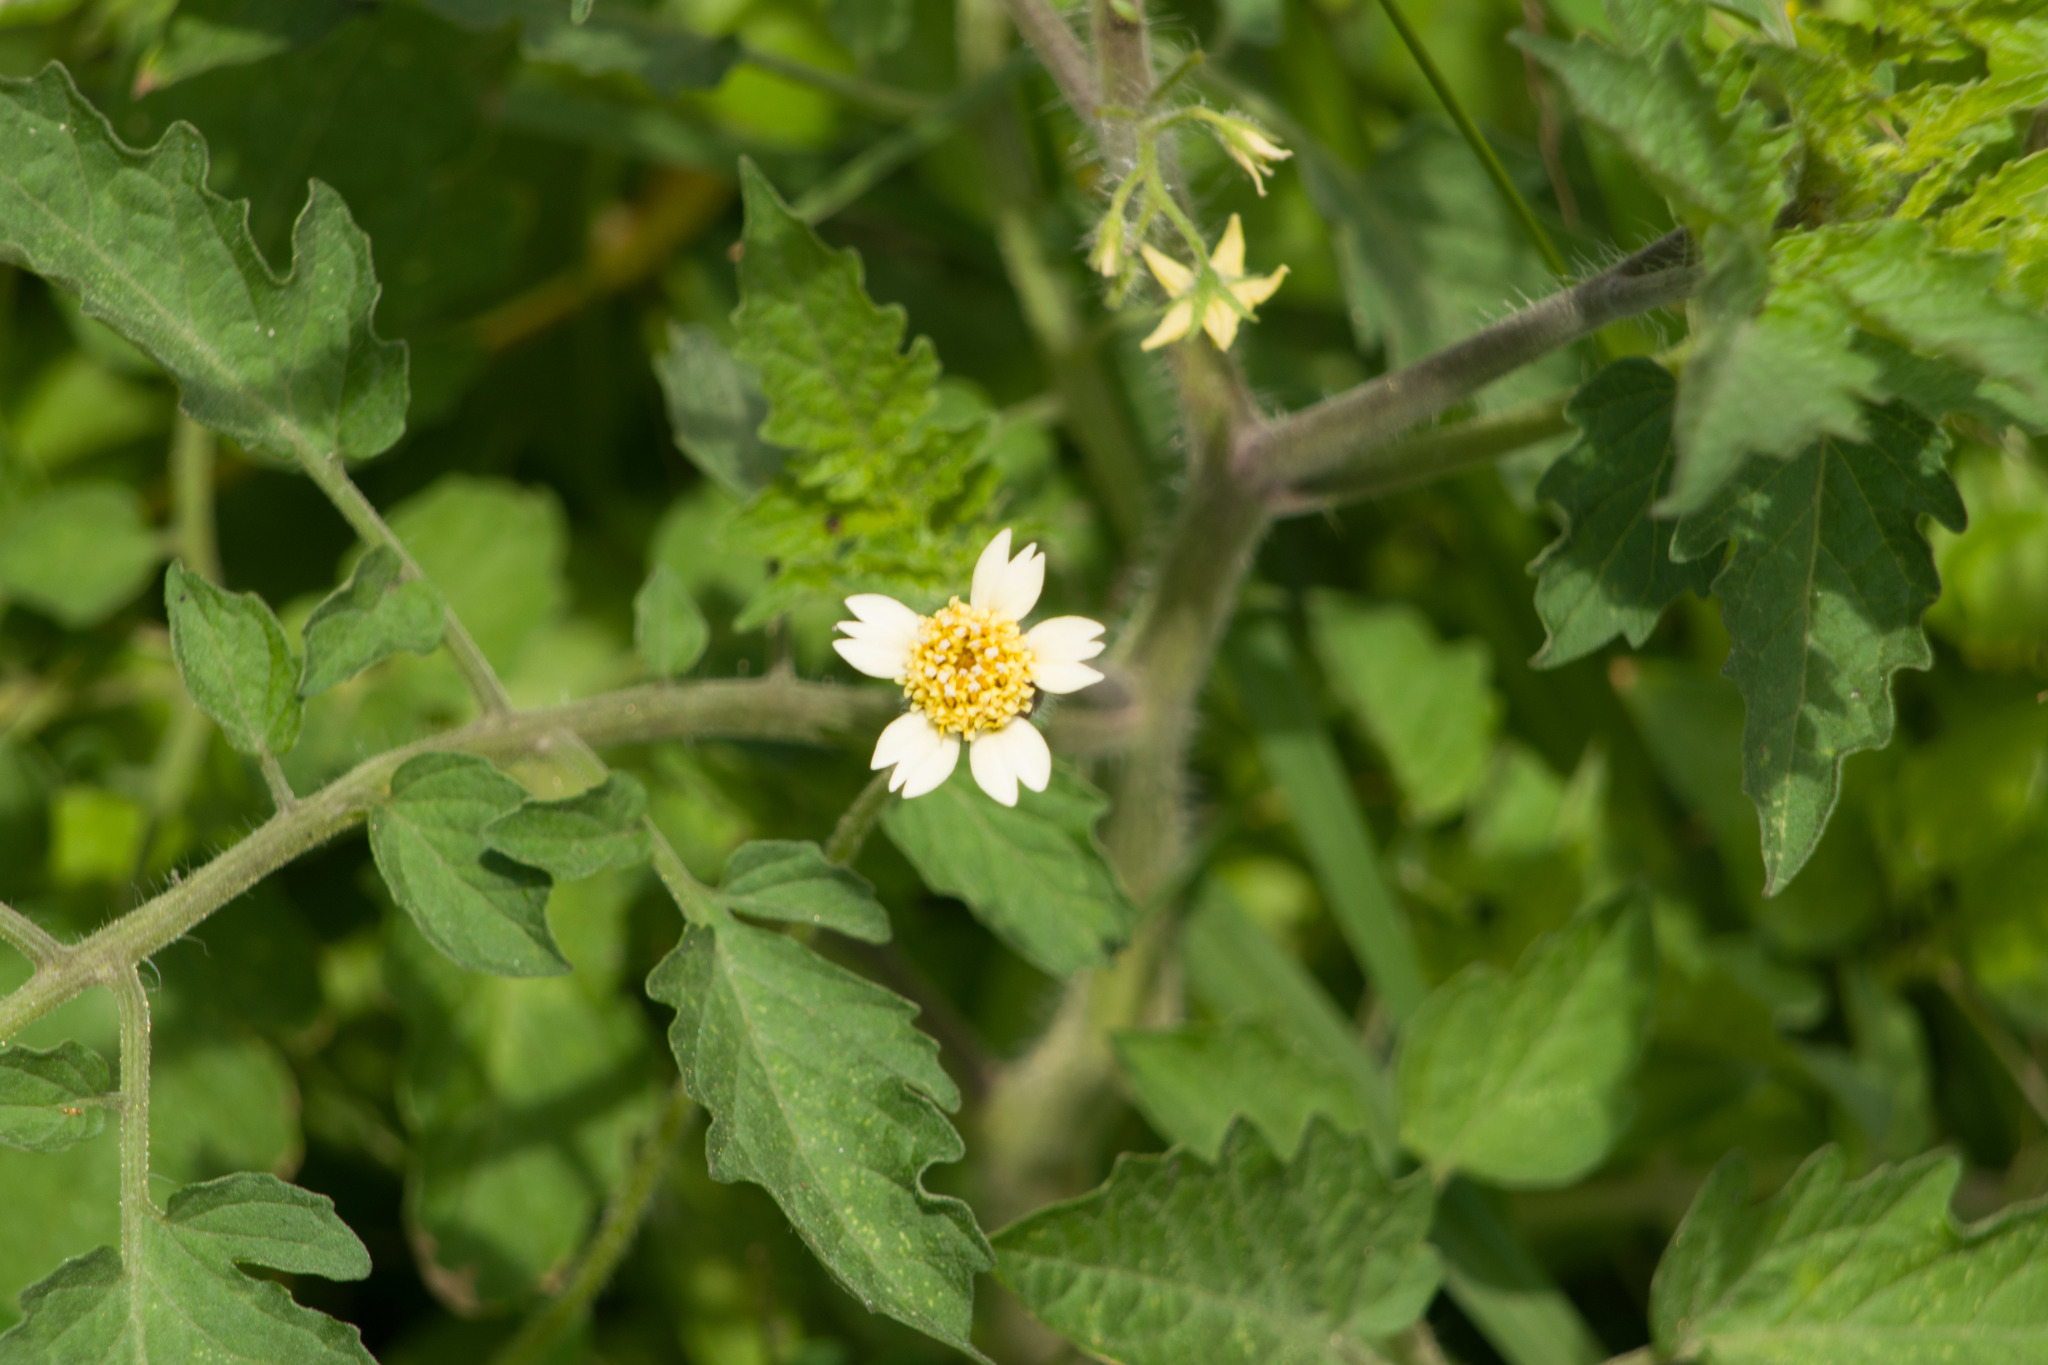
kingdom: Plantae
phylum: Tracheophyta
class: Magnoliopsida
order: Asterales
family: Asteraceae
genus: Tridax
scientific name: Tridax procumbens
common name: Coatbuttons
